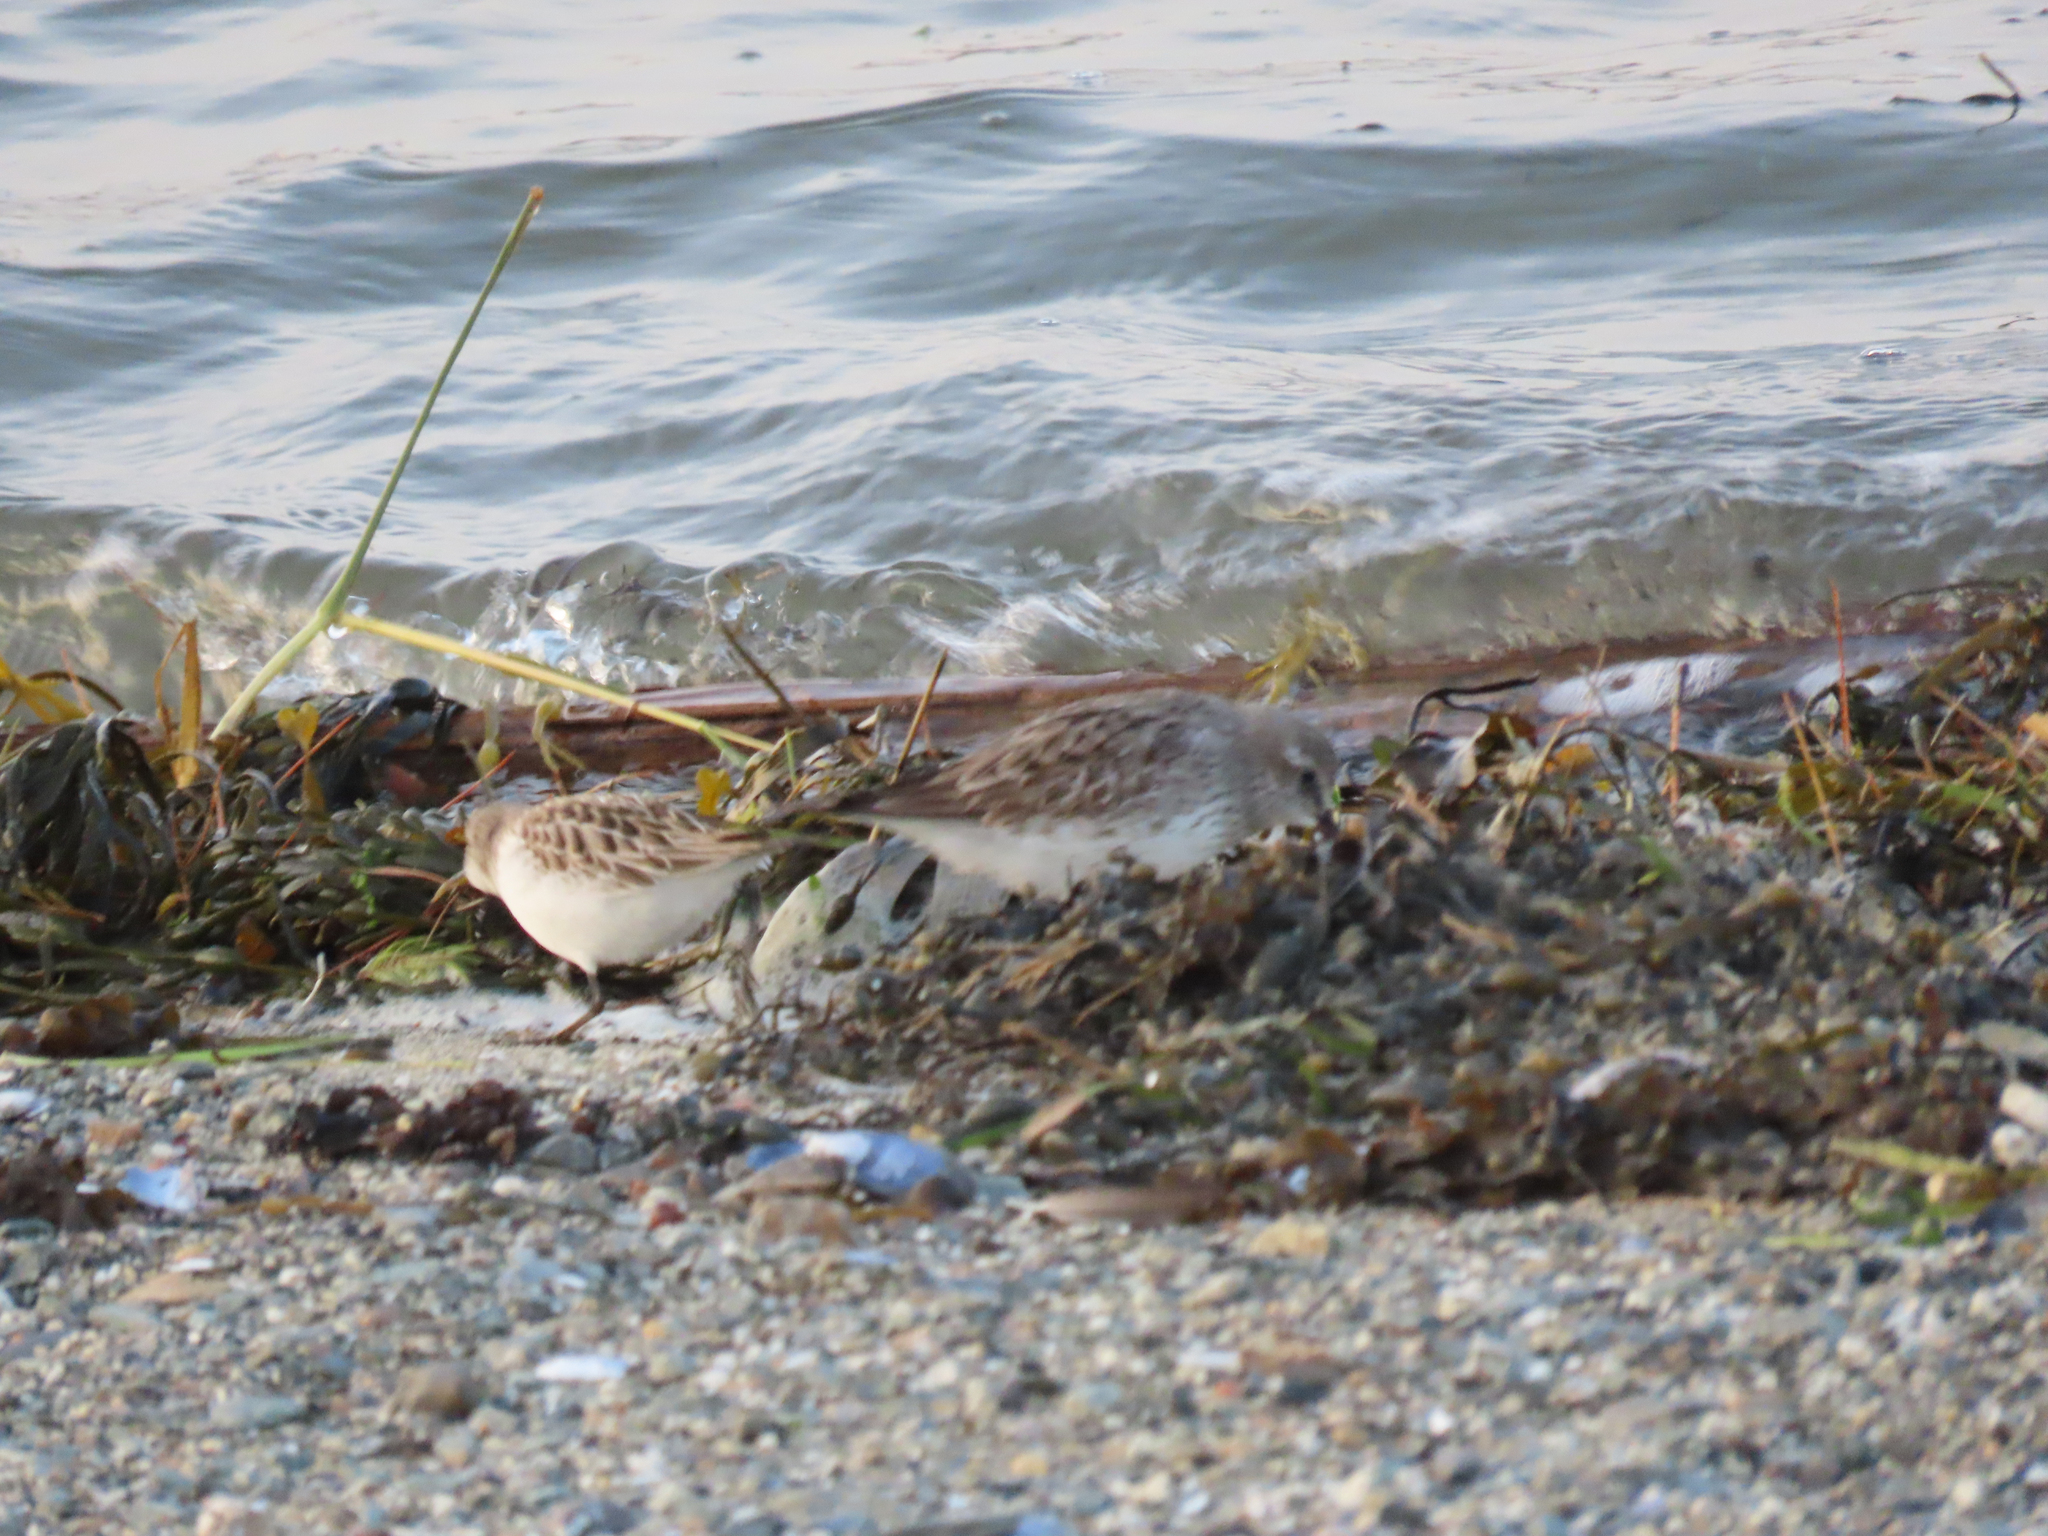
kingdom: Animalia
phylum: Chordata
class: Aves
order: Charadriiformes
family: Scolopacidae
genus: Calidris
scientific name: Calidris fuscicollis
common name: White-rumped sandpiper
